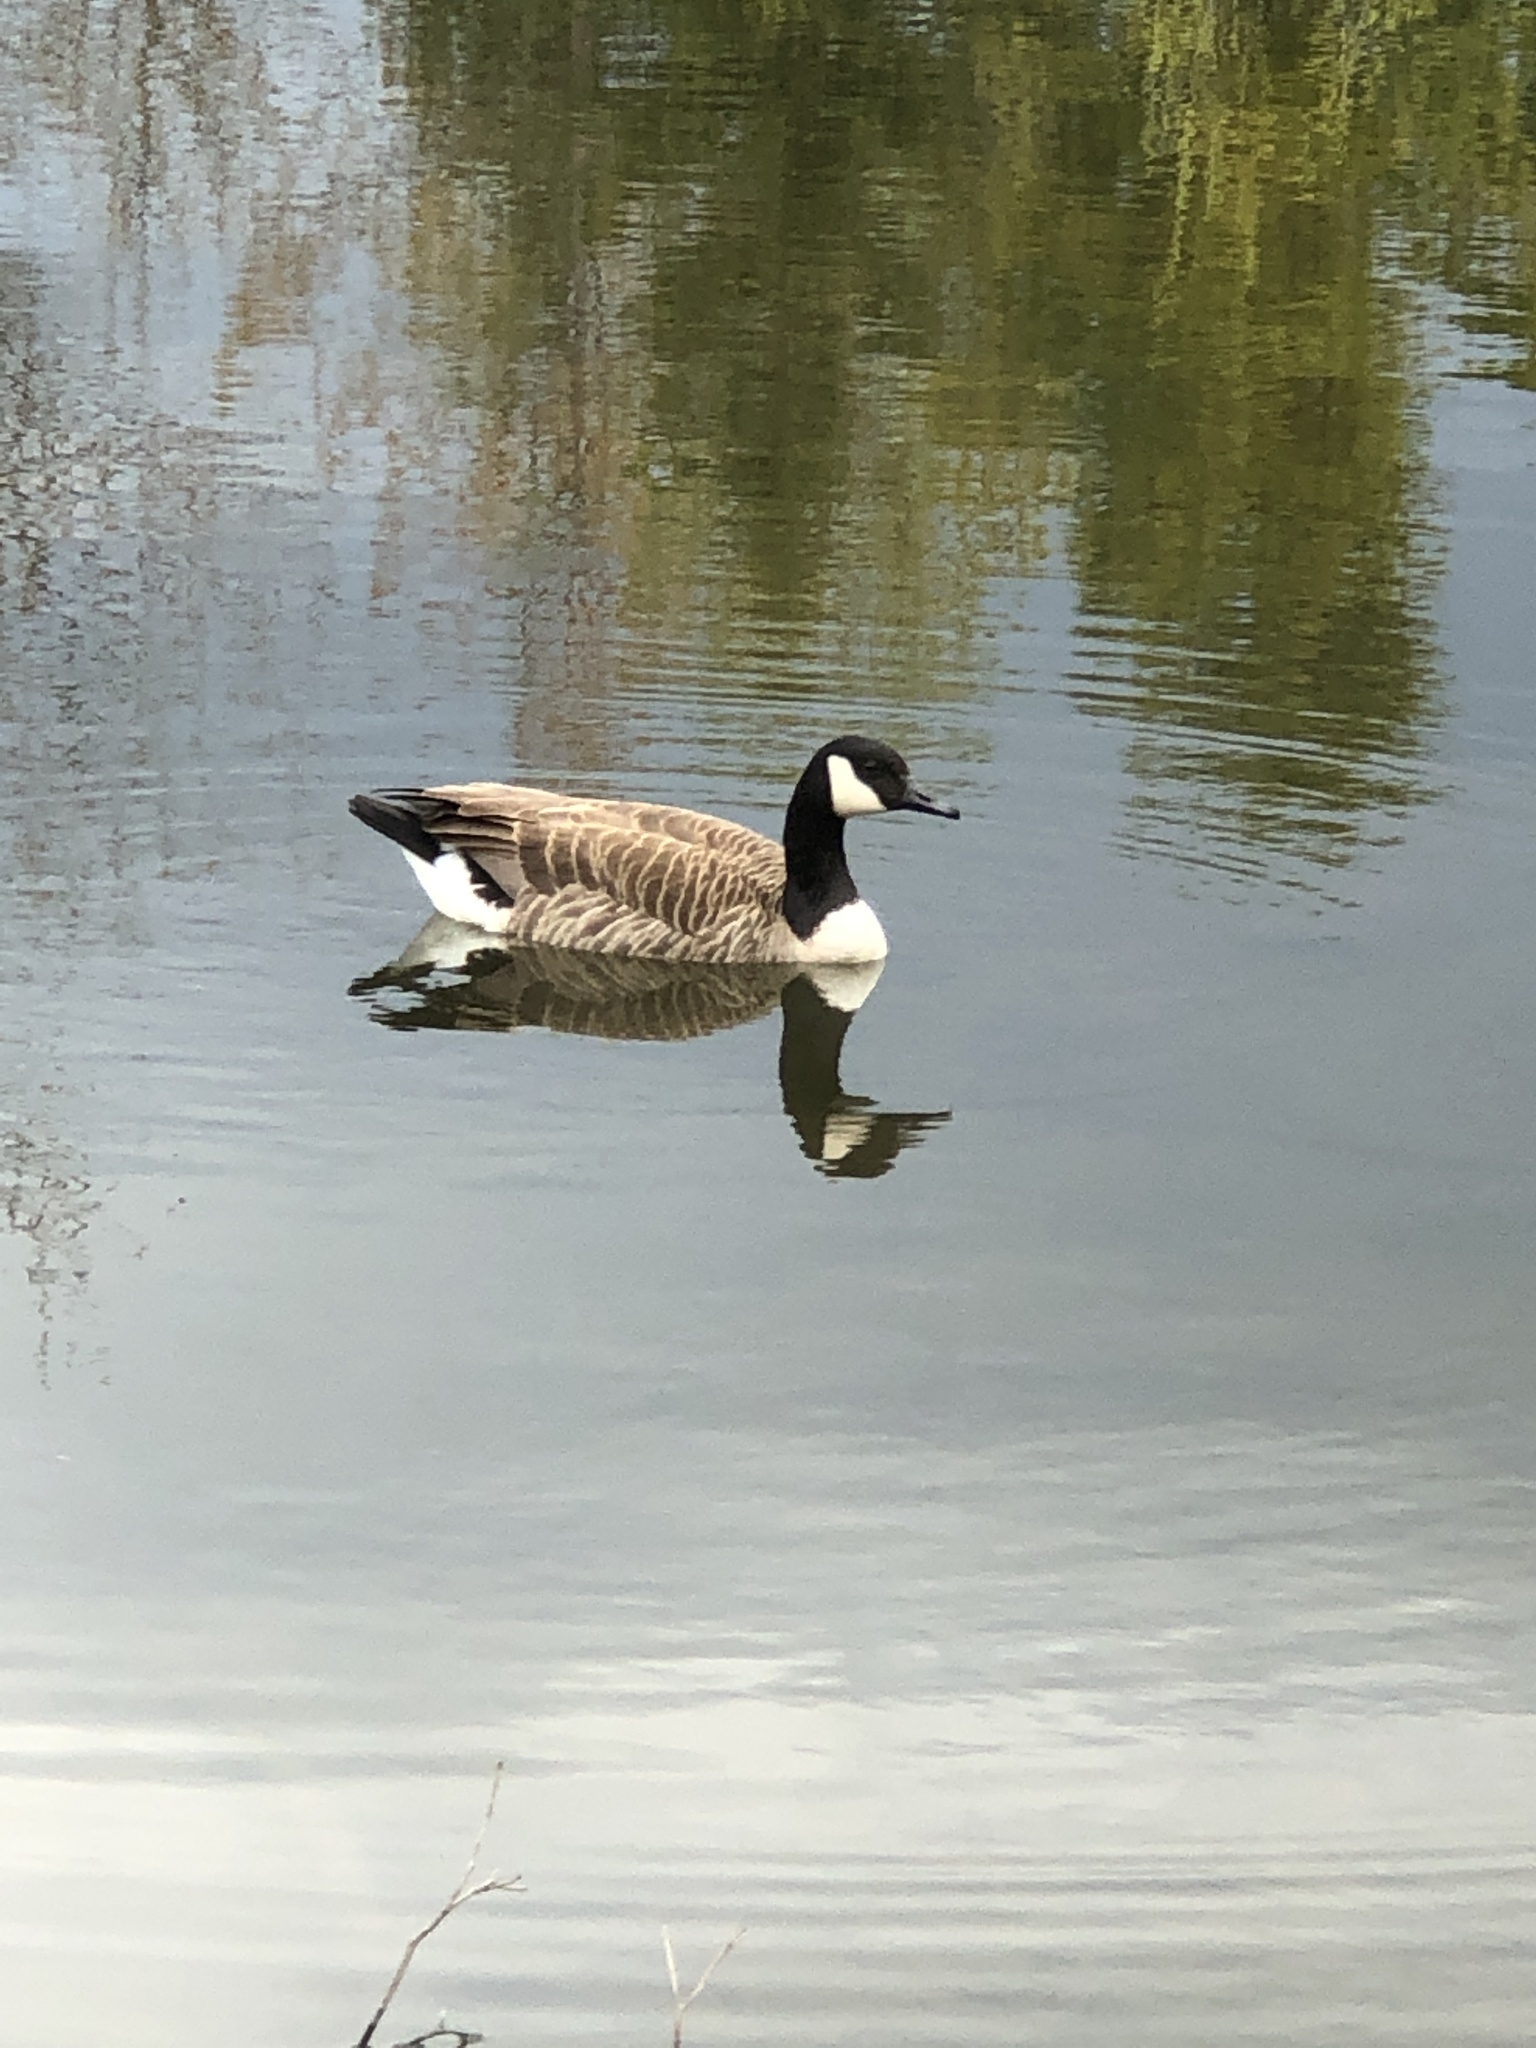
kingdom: Animalia
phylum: Chordata
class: Aves
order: Anseriformes
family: Anatidae
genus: Branta
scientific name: Branta canadensis
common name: Canada goose
